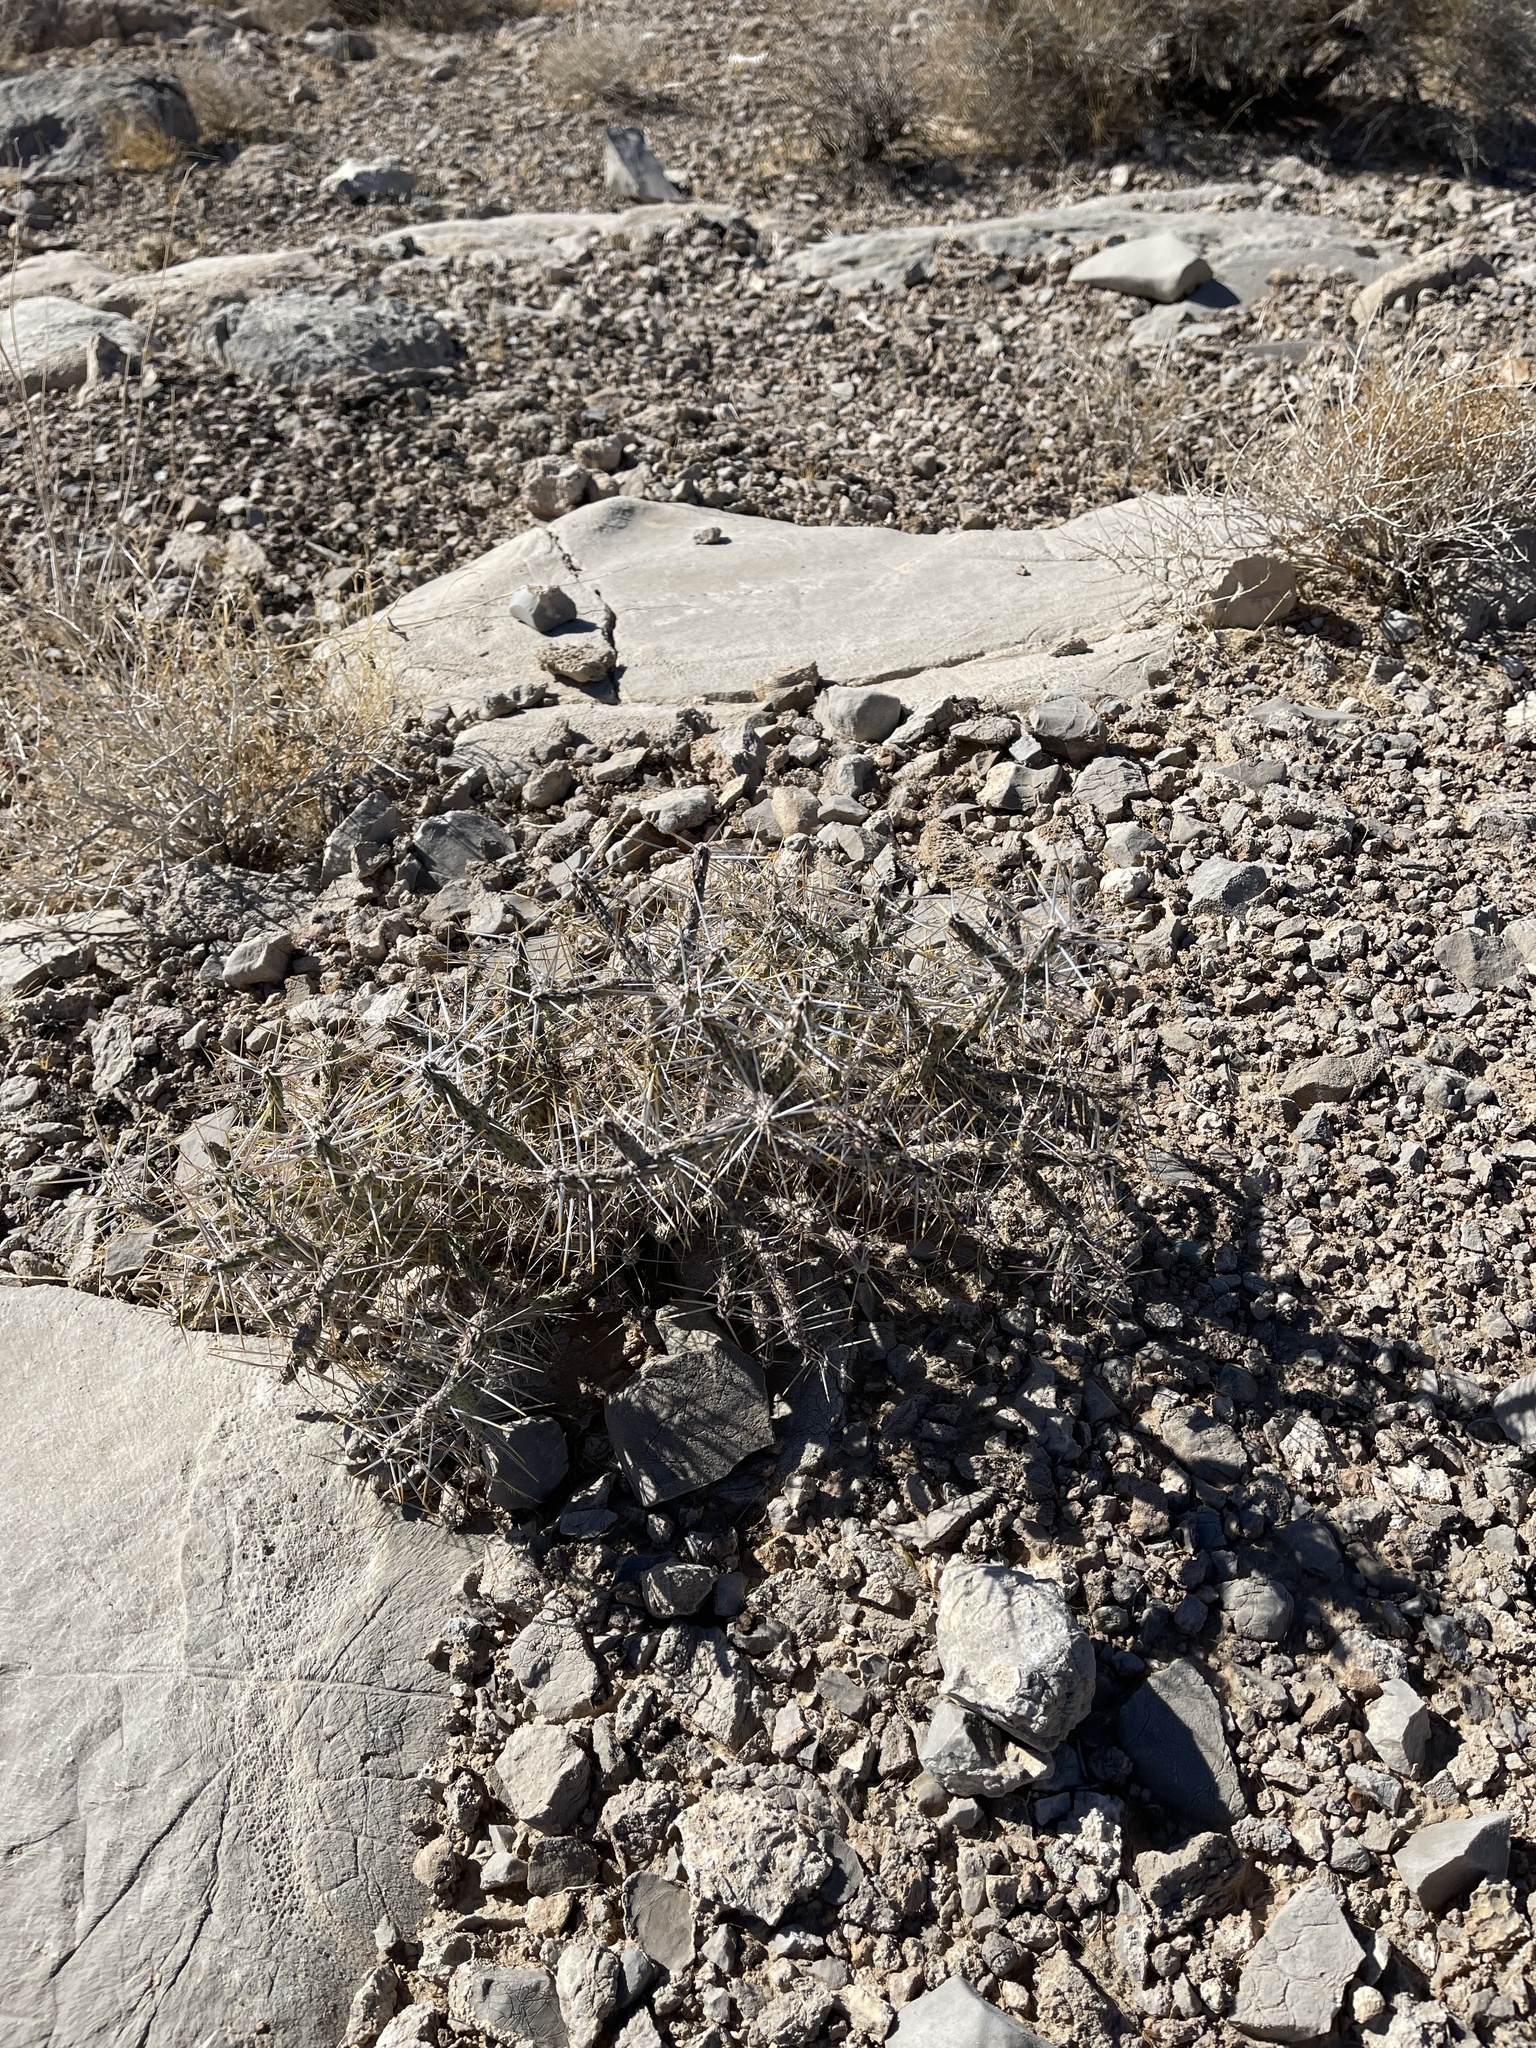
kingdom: Plantae
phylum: Tracheophyta
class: Magnoliopsida
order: Caryophyllales
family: Cactaceae
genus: Cylindropuntia
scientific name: Cylindropuntia ramosissima
